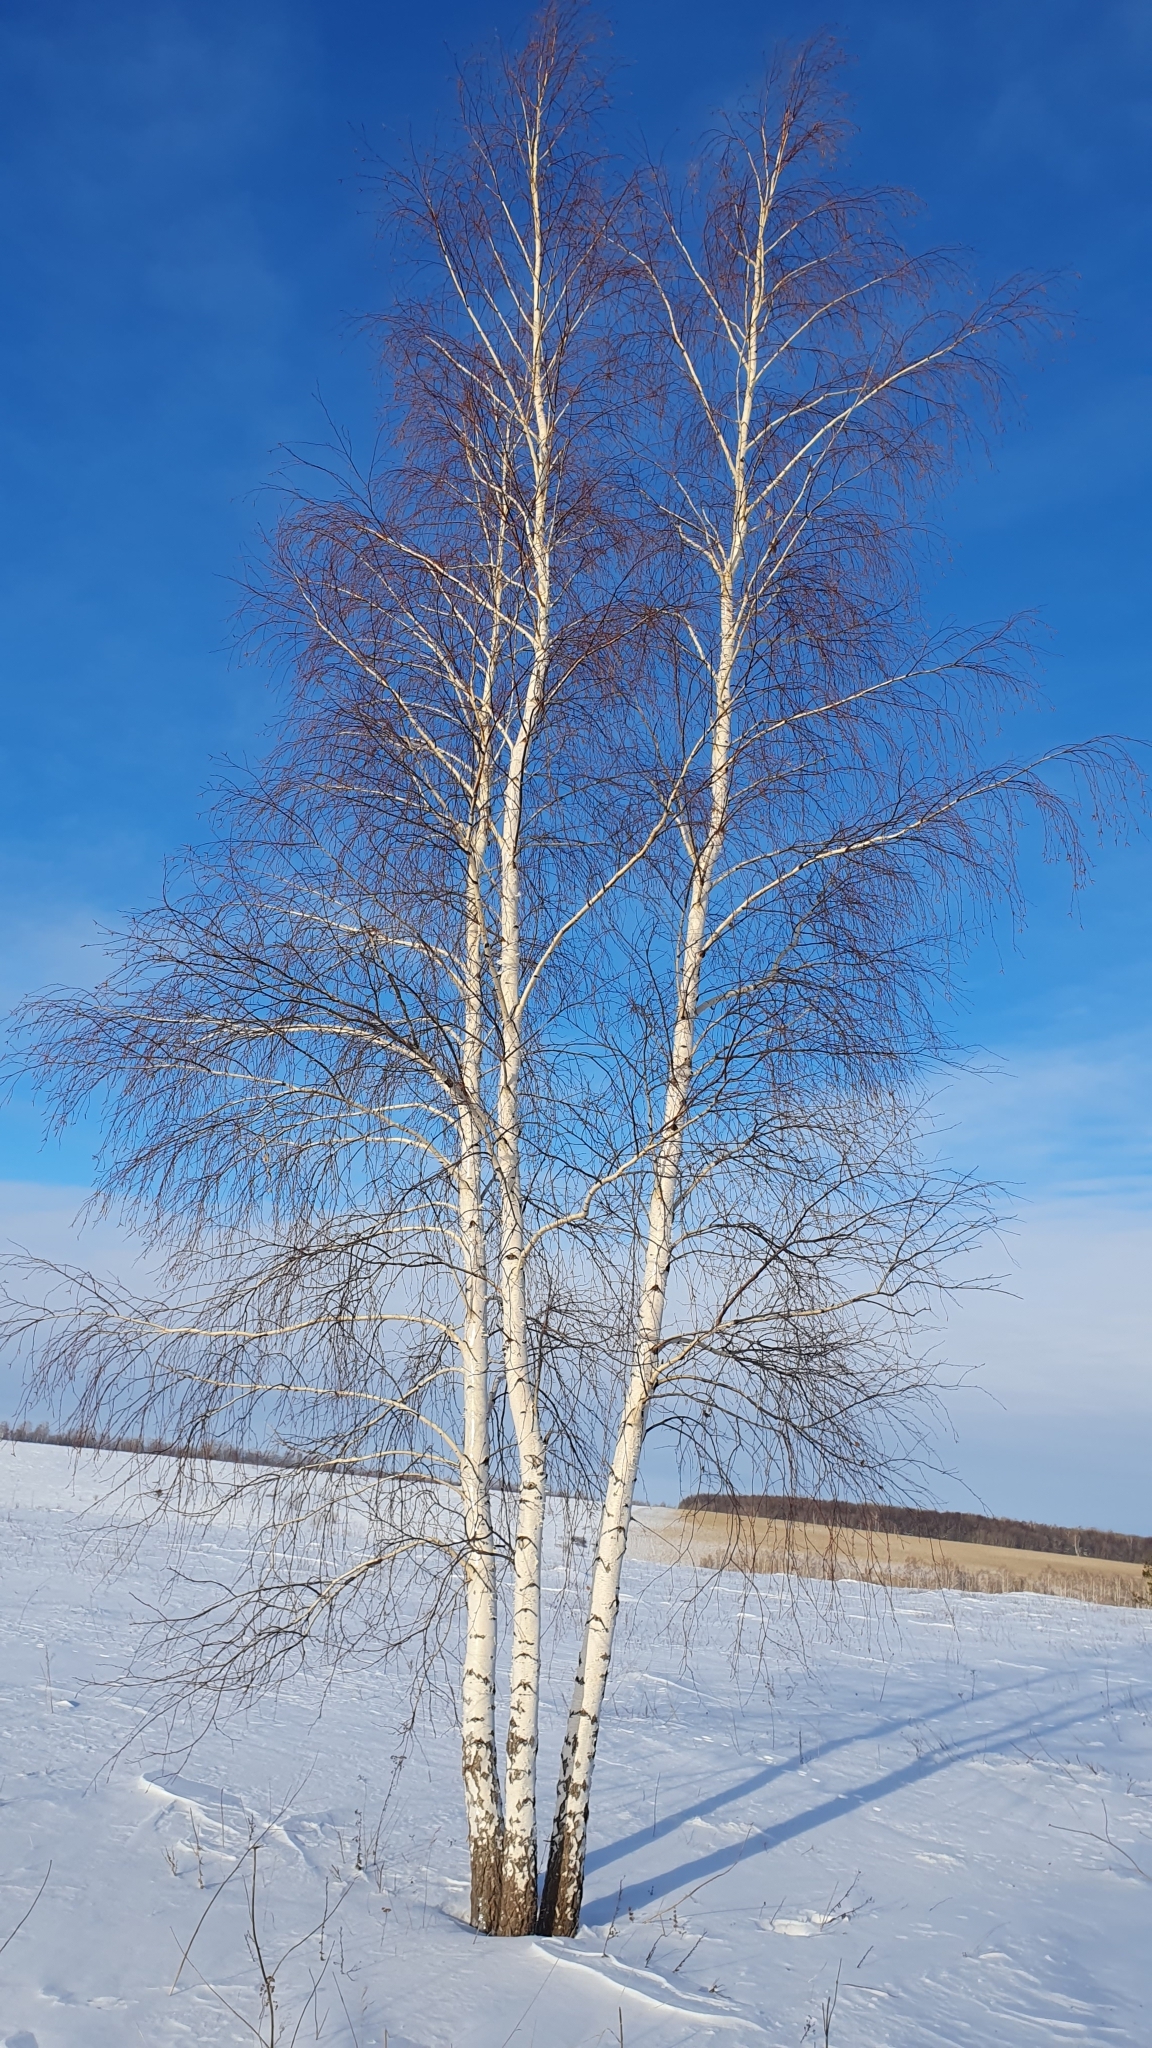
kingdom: Plantae
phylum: Tracheophyta
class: Magnoliopsida
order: Fagales
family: Betulaceae
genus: Betula
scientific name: Betula pendula
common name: Silver birch
